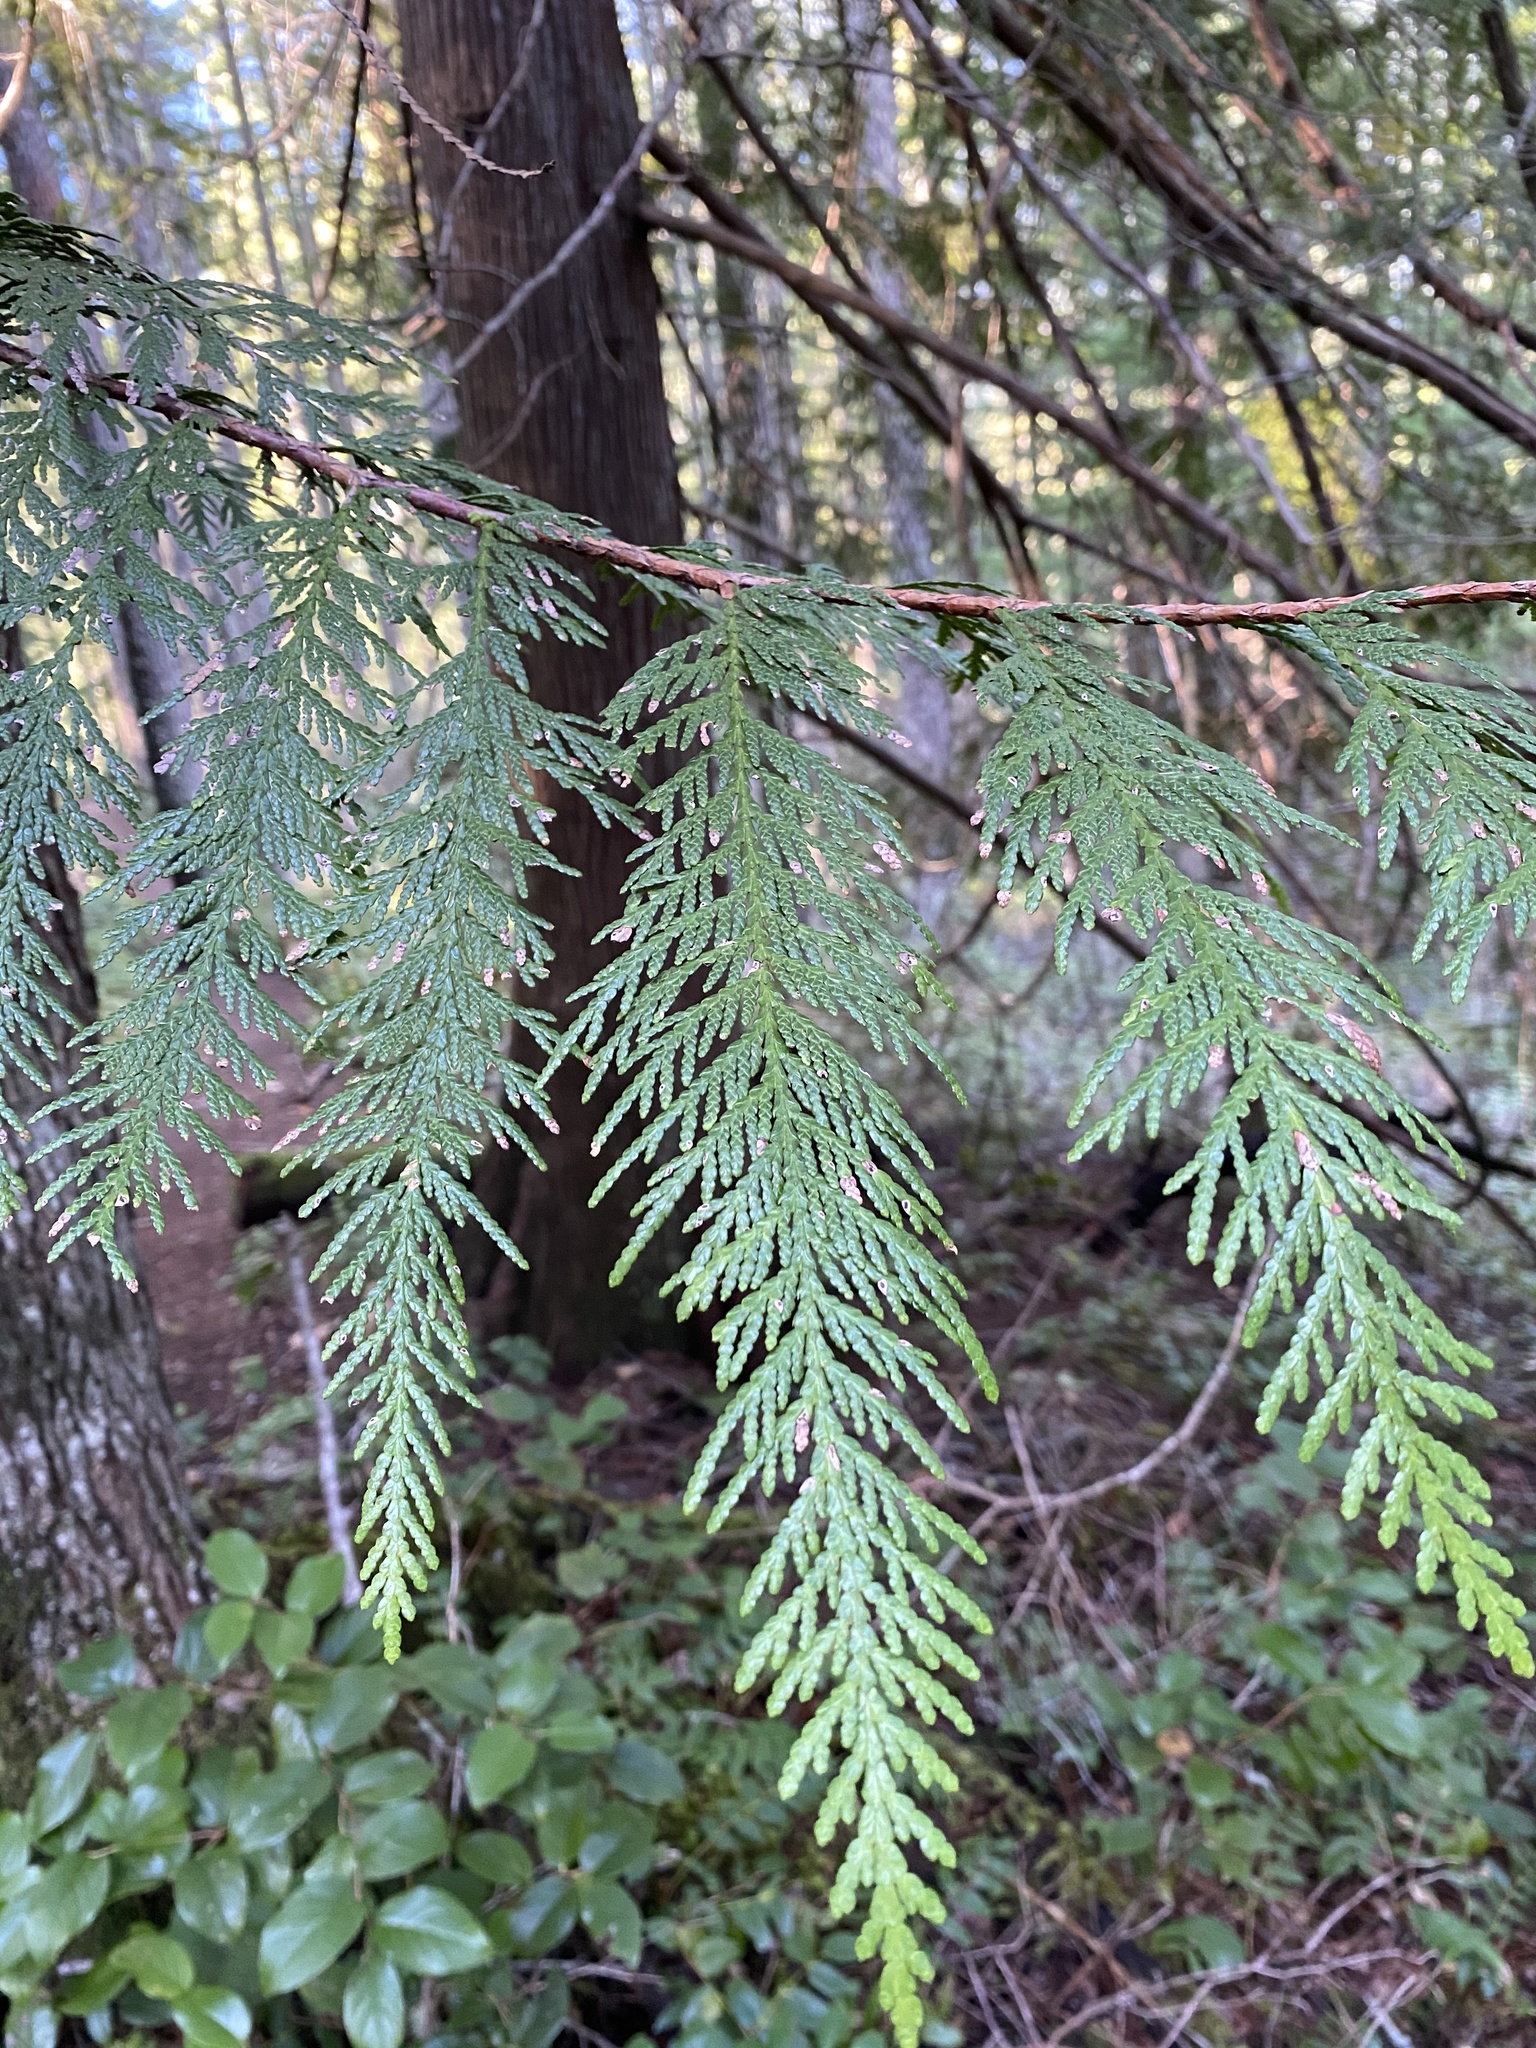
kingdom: Plantae
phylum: Tracheophyta
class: Pinopsida
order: Pinales
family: Cupressaceae
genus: Thuja
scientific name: Thuja plicata
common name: Western red-cedar
